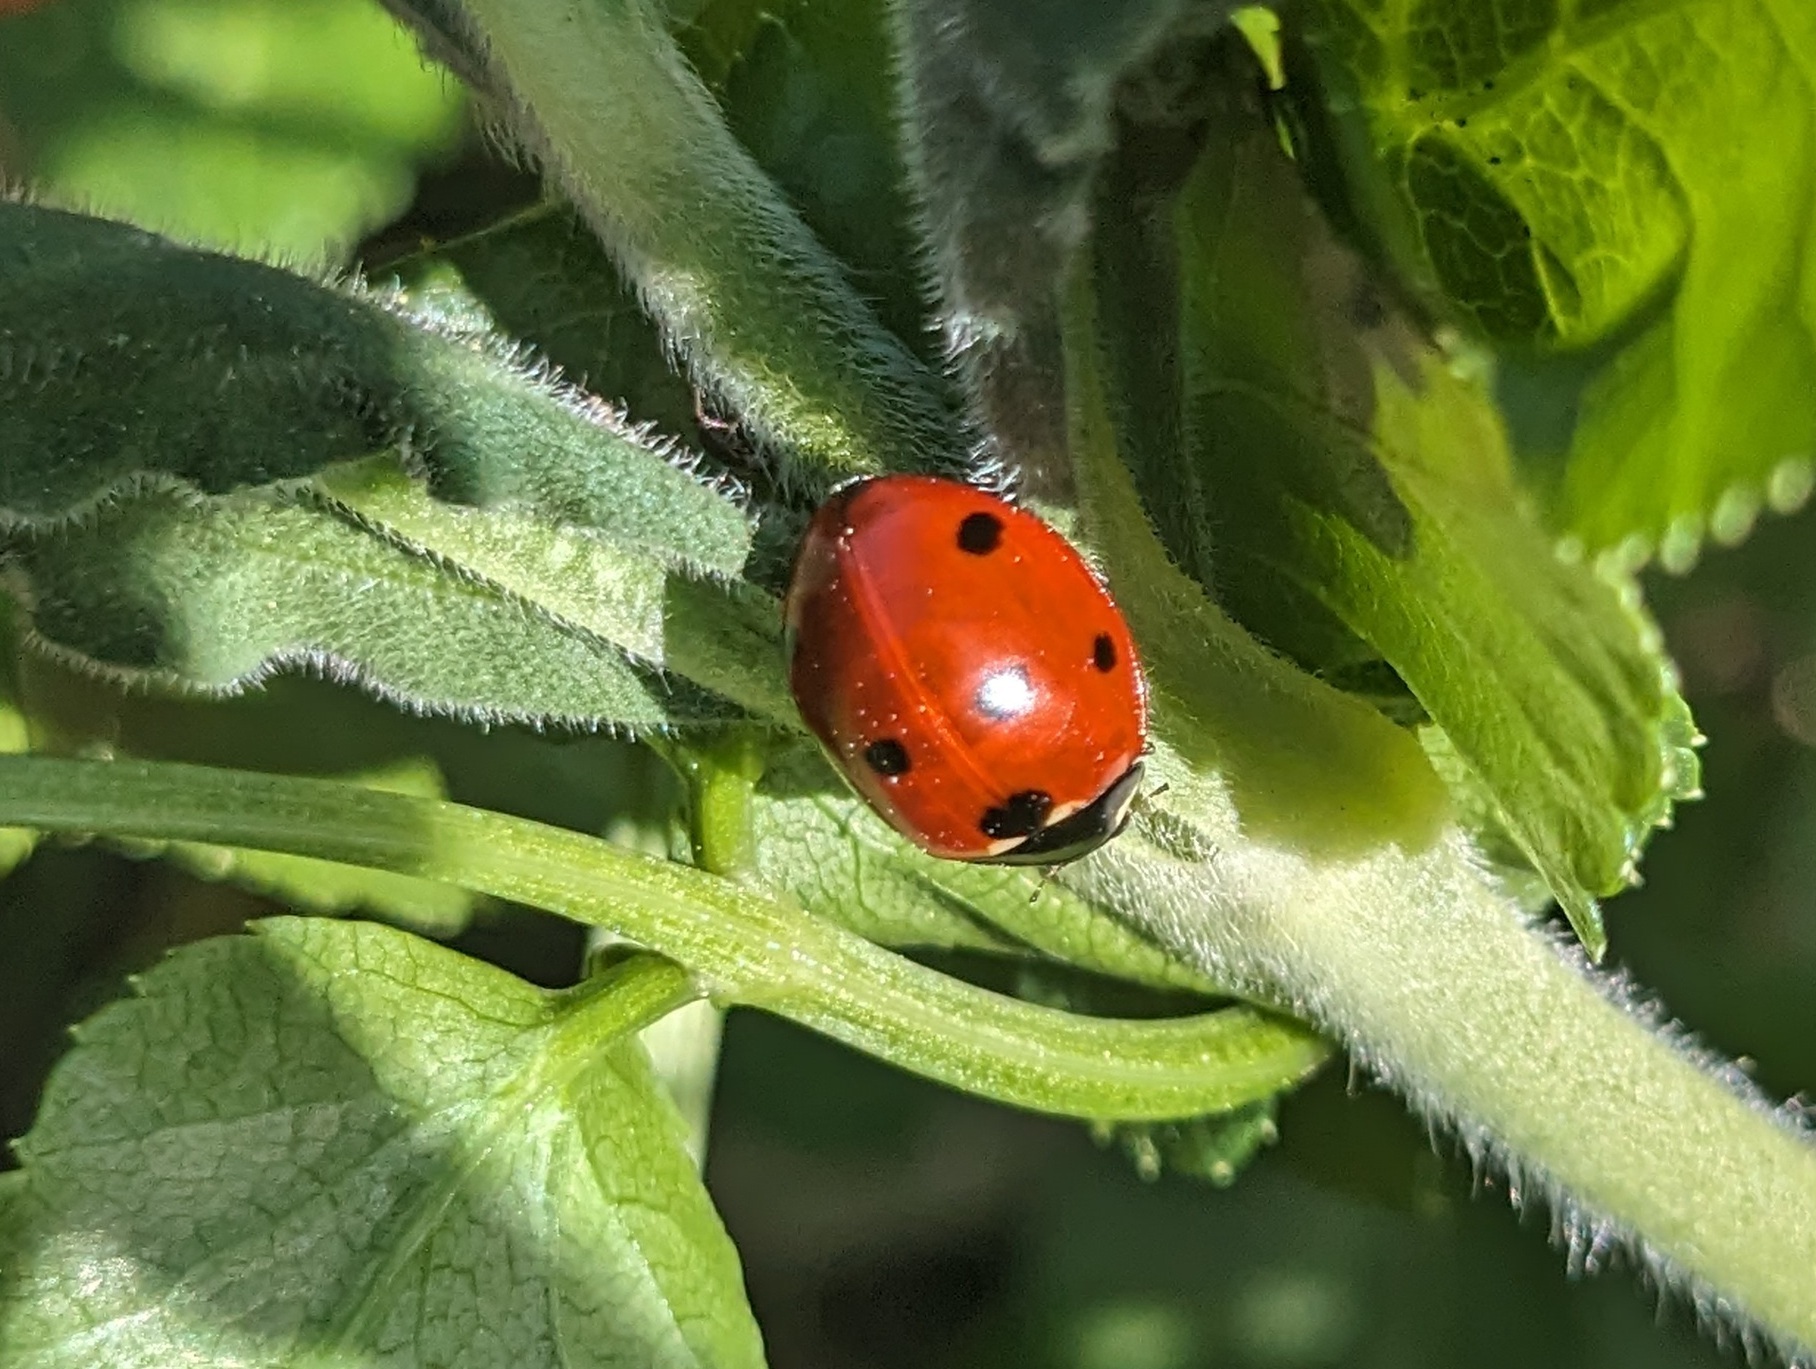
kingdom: Animalia
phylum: Arthropoda
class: Insecta
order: Coleoptera
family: Coccinellidae
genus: Coccinella
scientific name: Coccinella septempunctata
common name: Sevenspotted lady beetle
